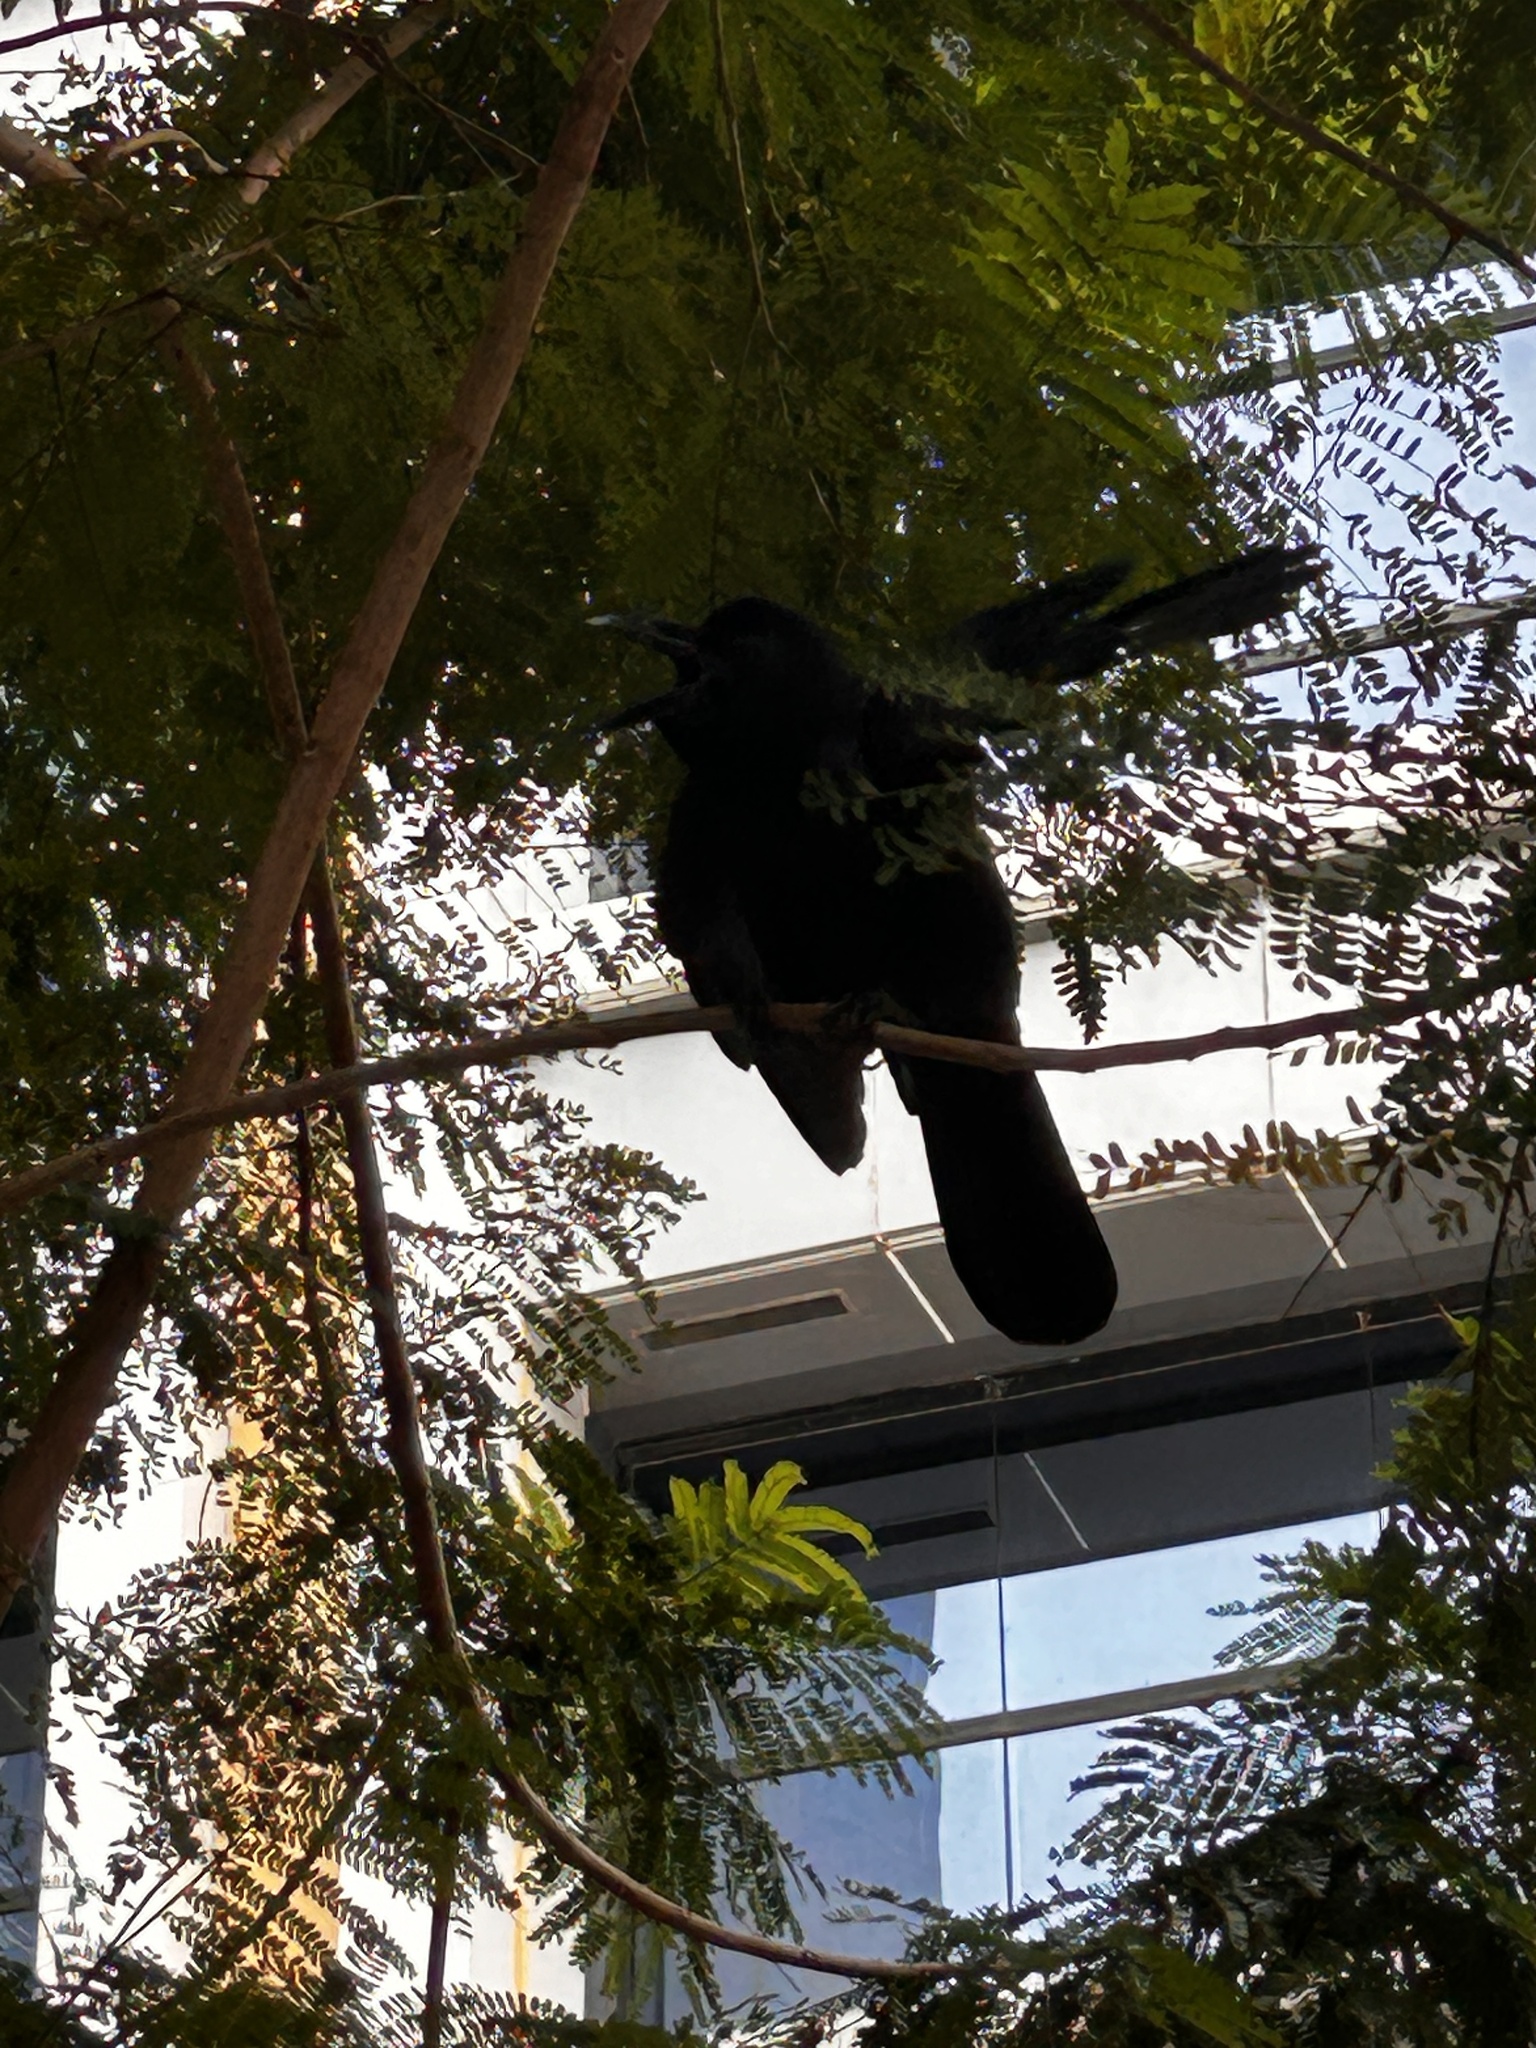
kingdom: Animalia
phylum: Chordata
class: Aves
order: Passeriformes
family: Corvidae
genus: Corvus
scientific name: Corvus macrorhynchos
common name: Large-billed crow
